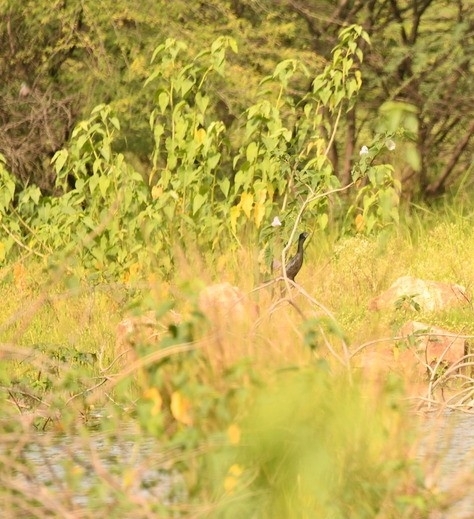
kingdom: Animalia
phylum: Chordata
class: Aves
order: Suliformes
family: Phalacrocoracidae
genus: Microcarbo
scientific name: Microcarbo niger
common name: Little cormorant
